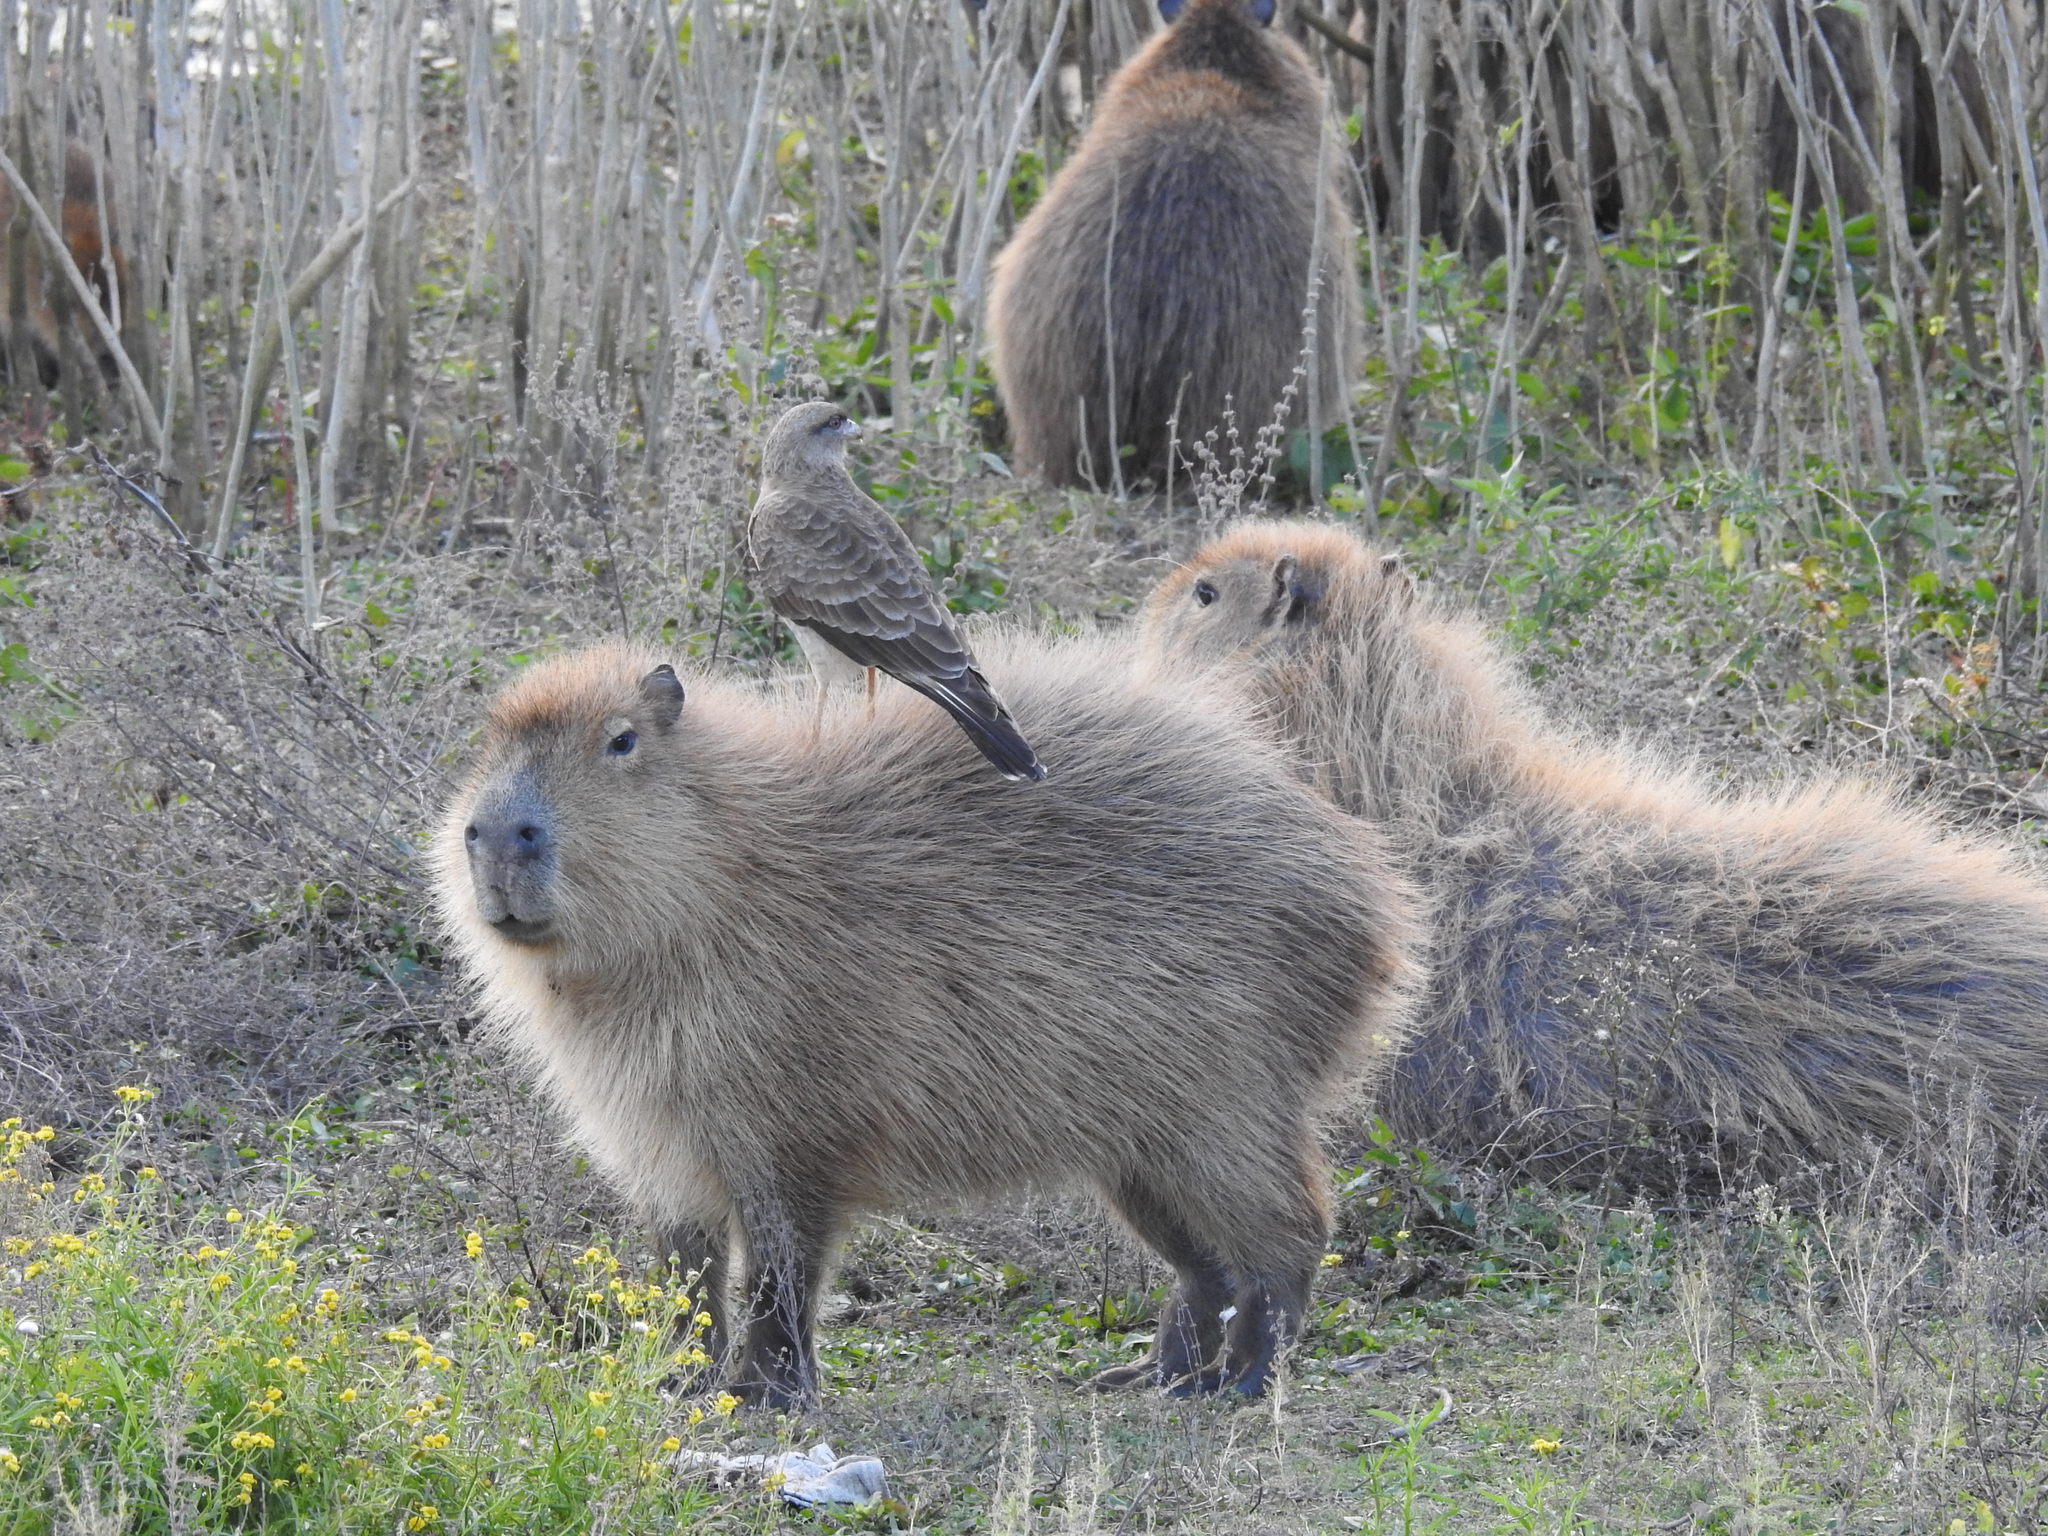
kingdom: Animalia
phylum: Chordata
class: Mammalia
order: Rodentia
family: Caviidae
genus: Hydrochoerus
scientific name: Hydrochoerus hydrochaeris
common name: Capybara
